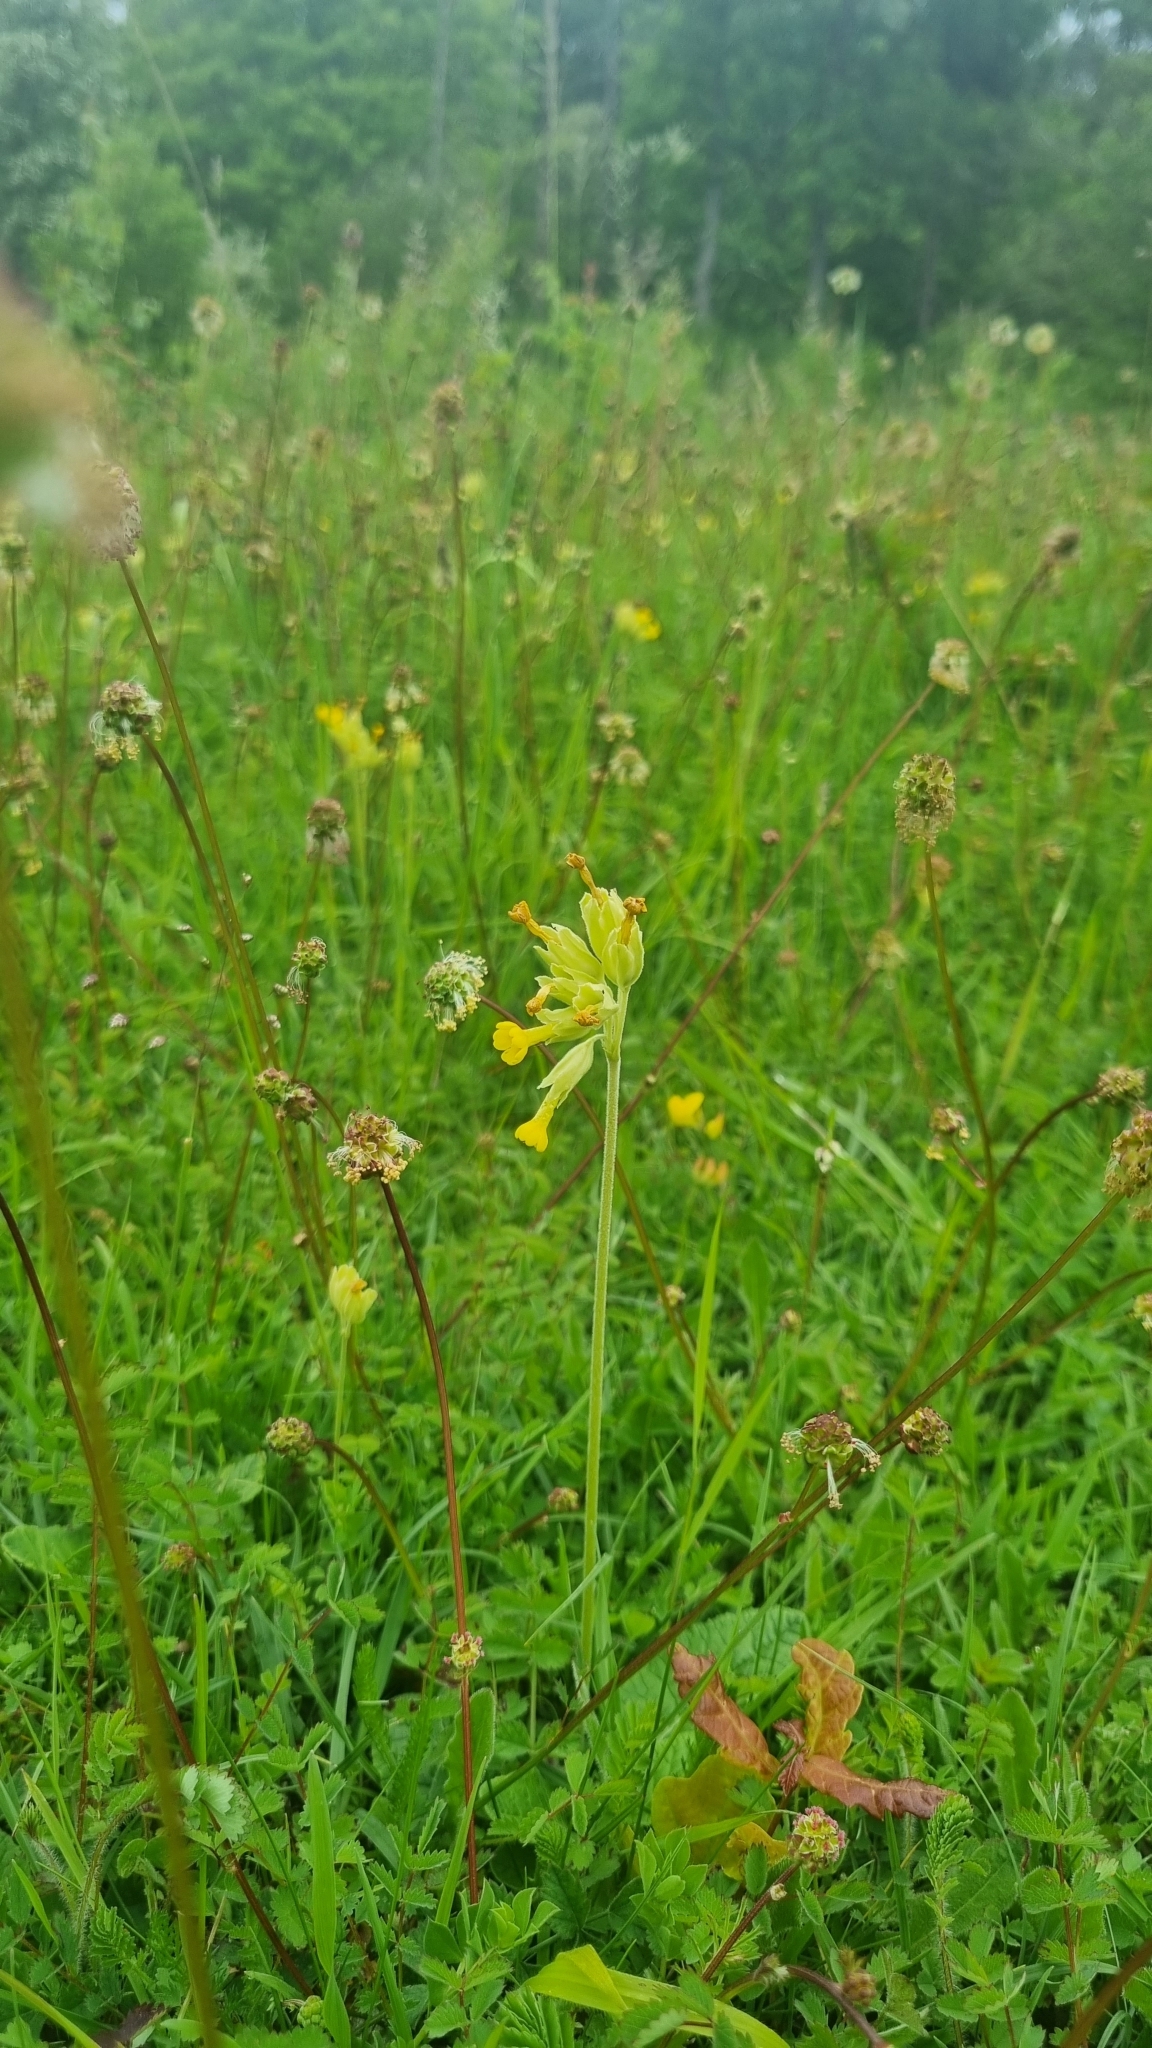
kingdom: Plantae
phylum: Tracheophyta
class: Magnoliopsida
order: Ericales
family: Primulaceae
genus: Primula
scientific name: Primula veris
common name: Cowslip
